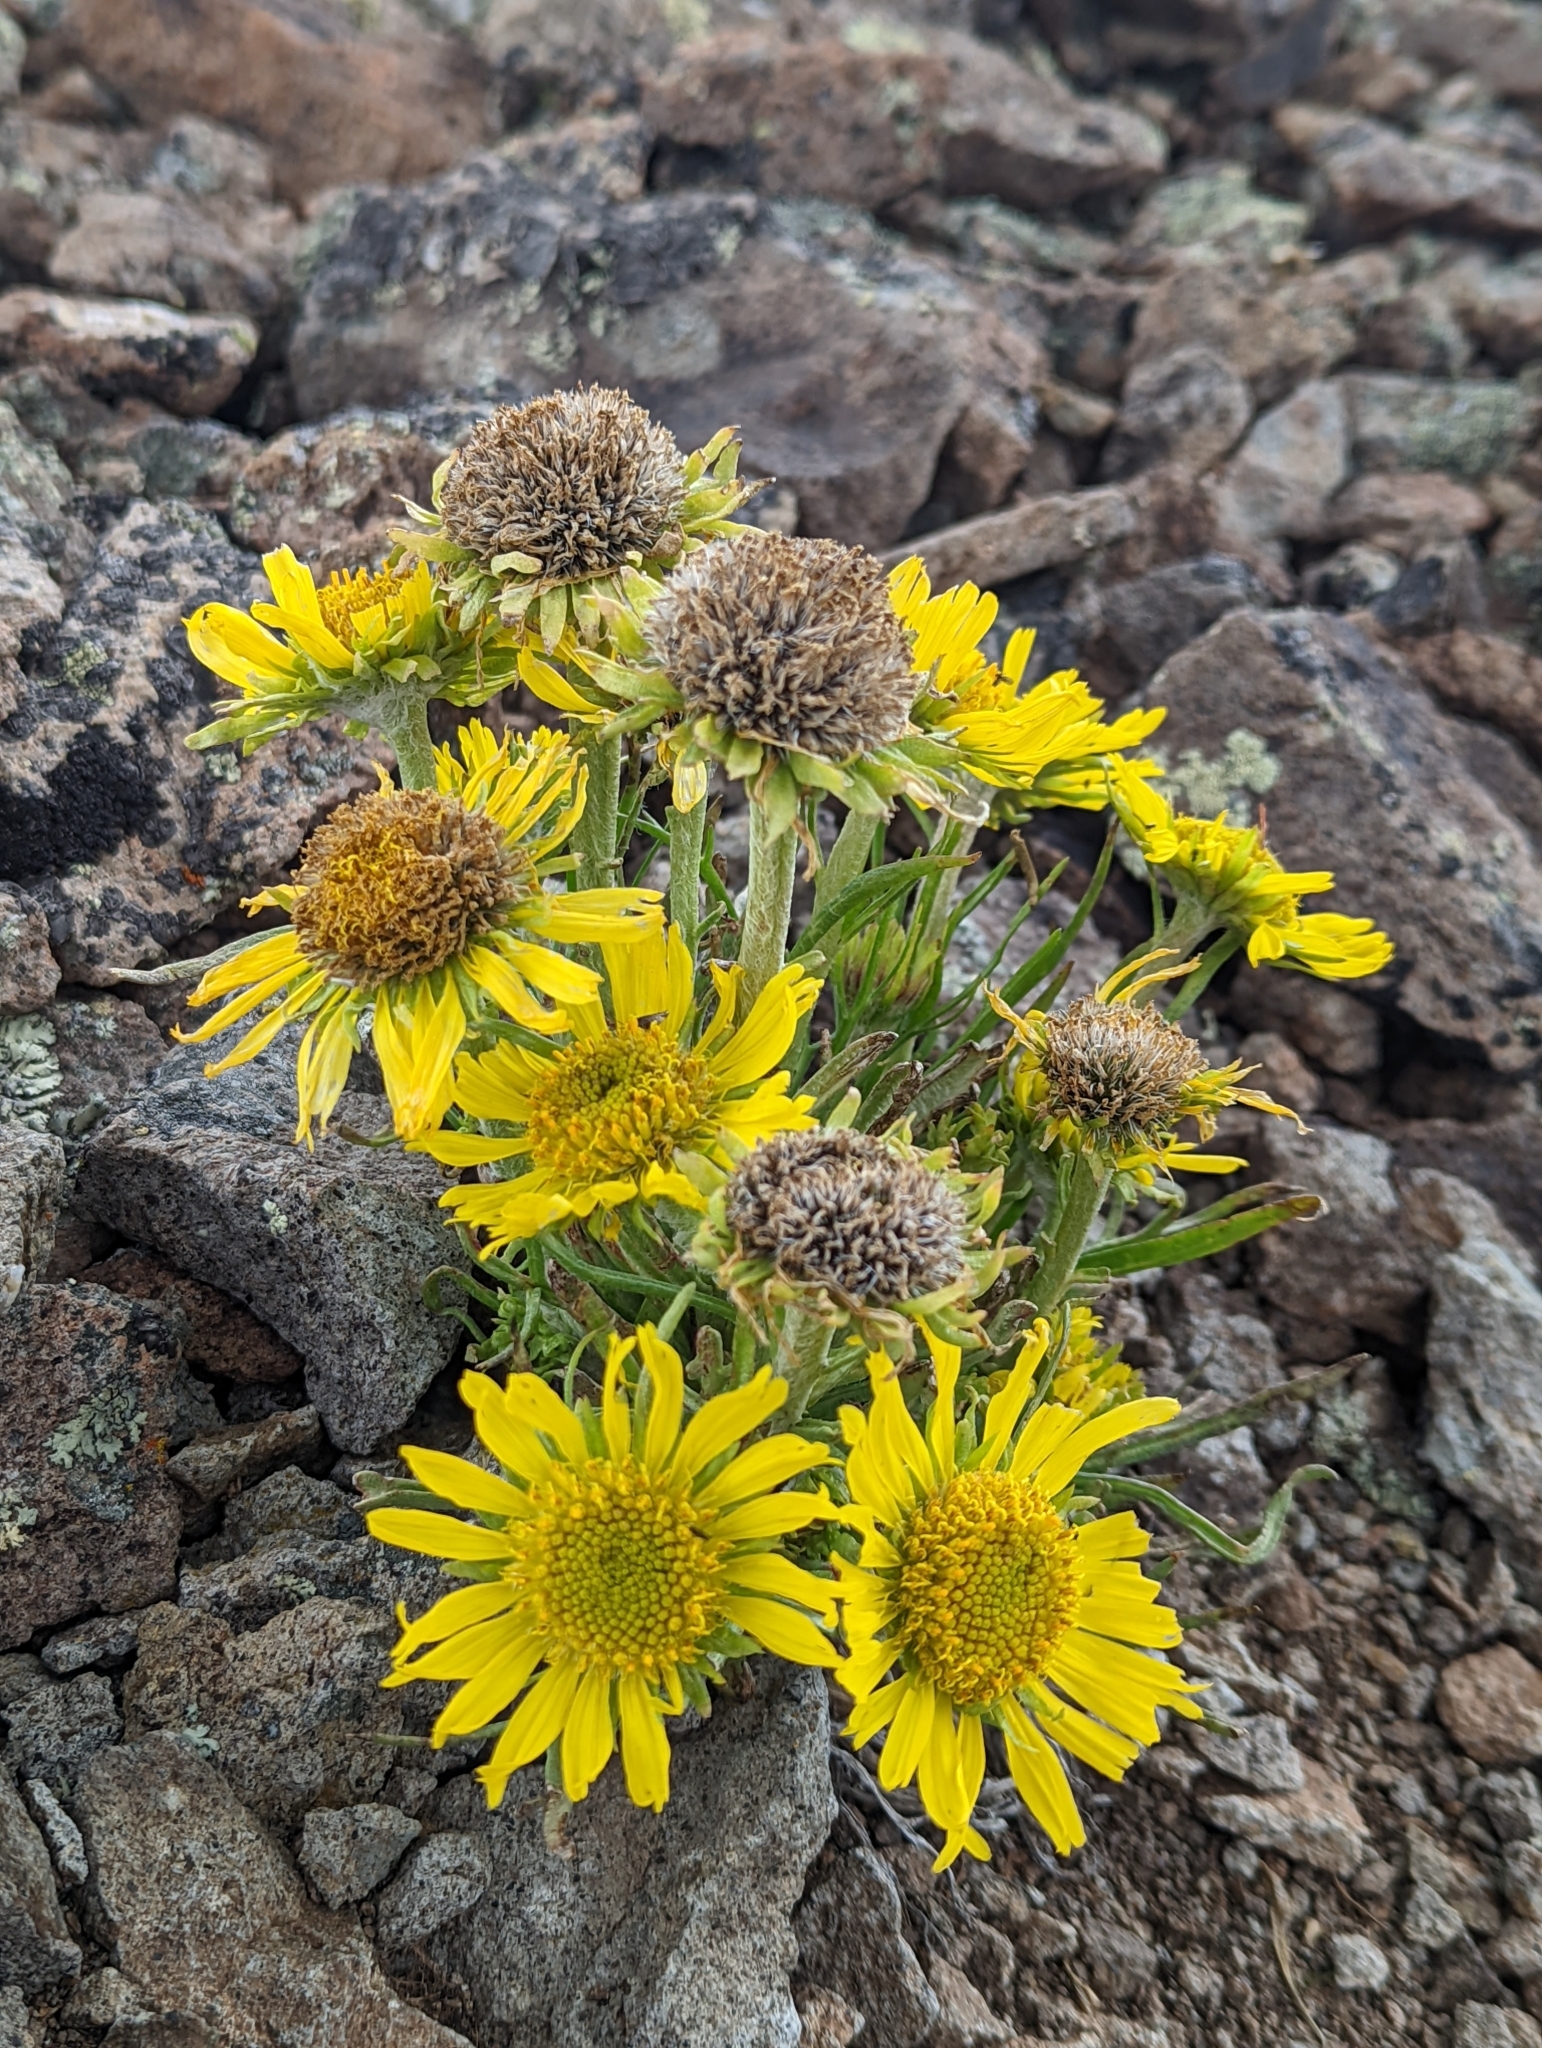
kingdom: Plantae
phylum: Tracheophyta
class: Magnoliopsida
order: Asterales
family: Asteraceae
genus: Hymenoxys
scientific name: Hymenoxys grandiflora
